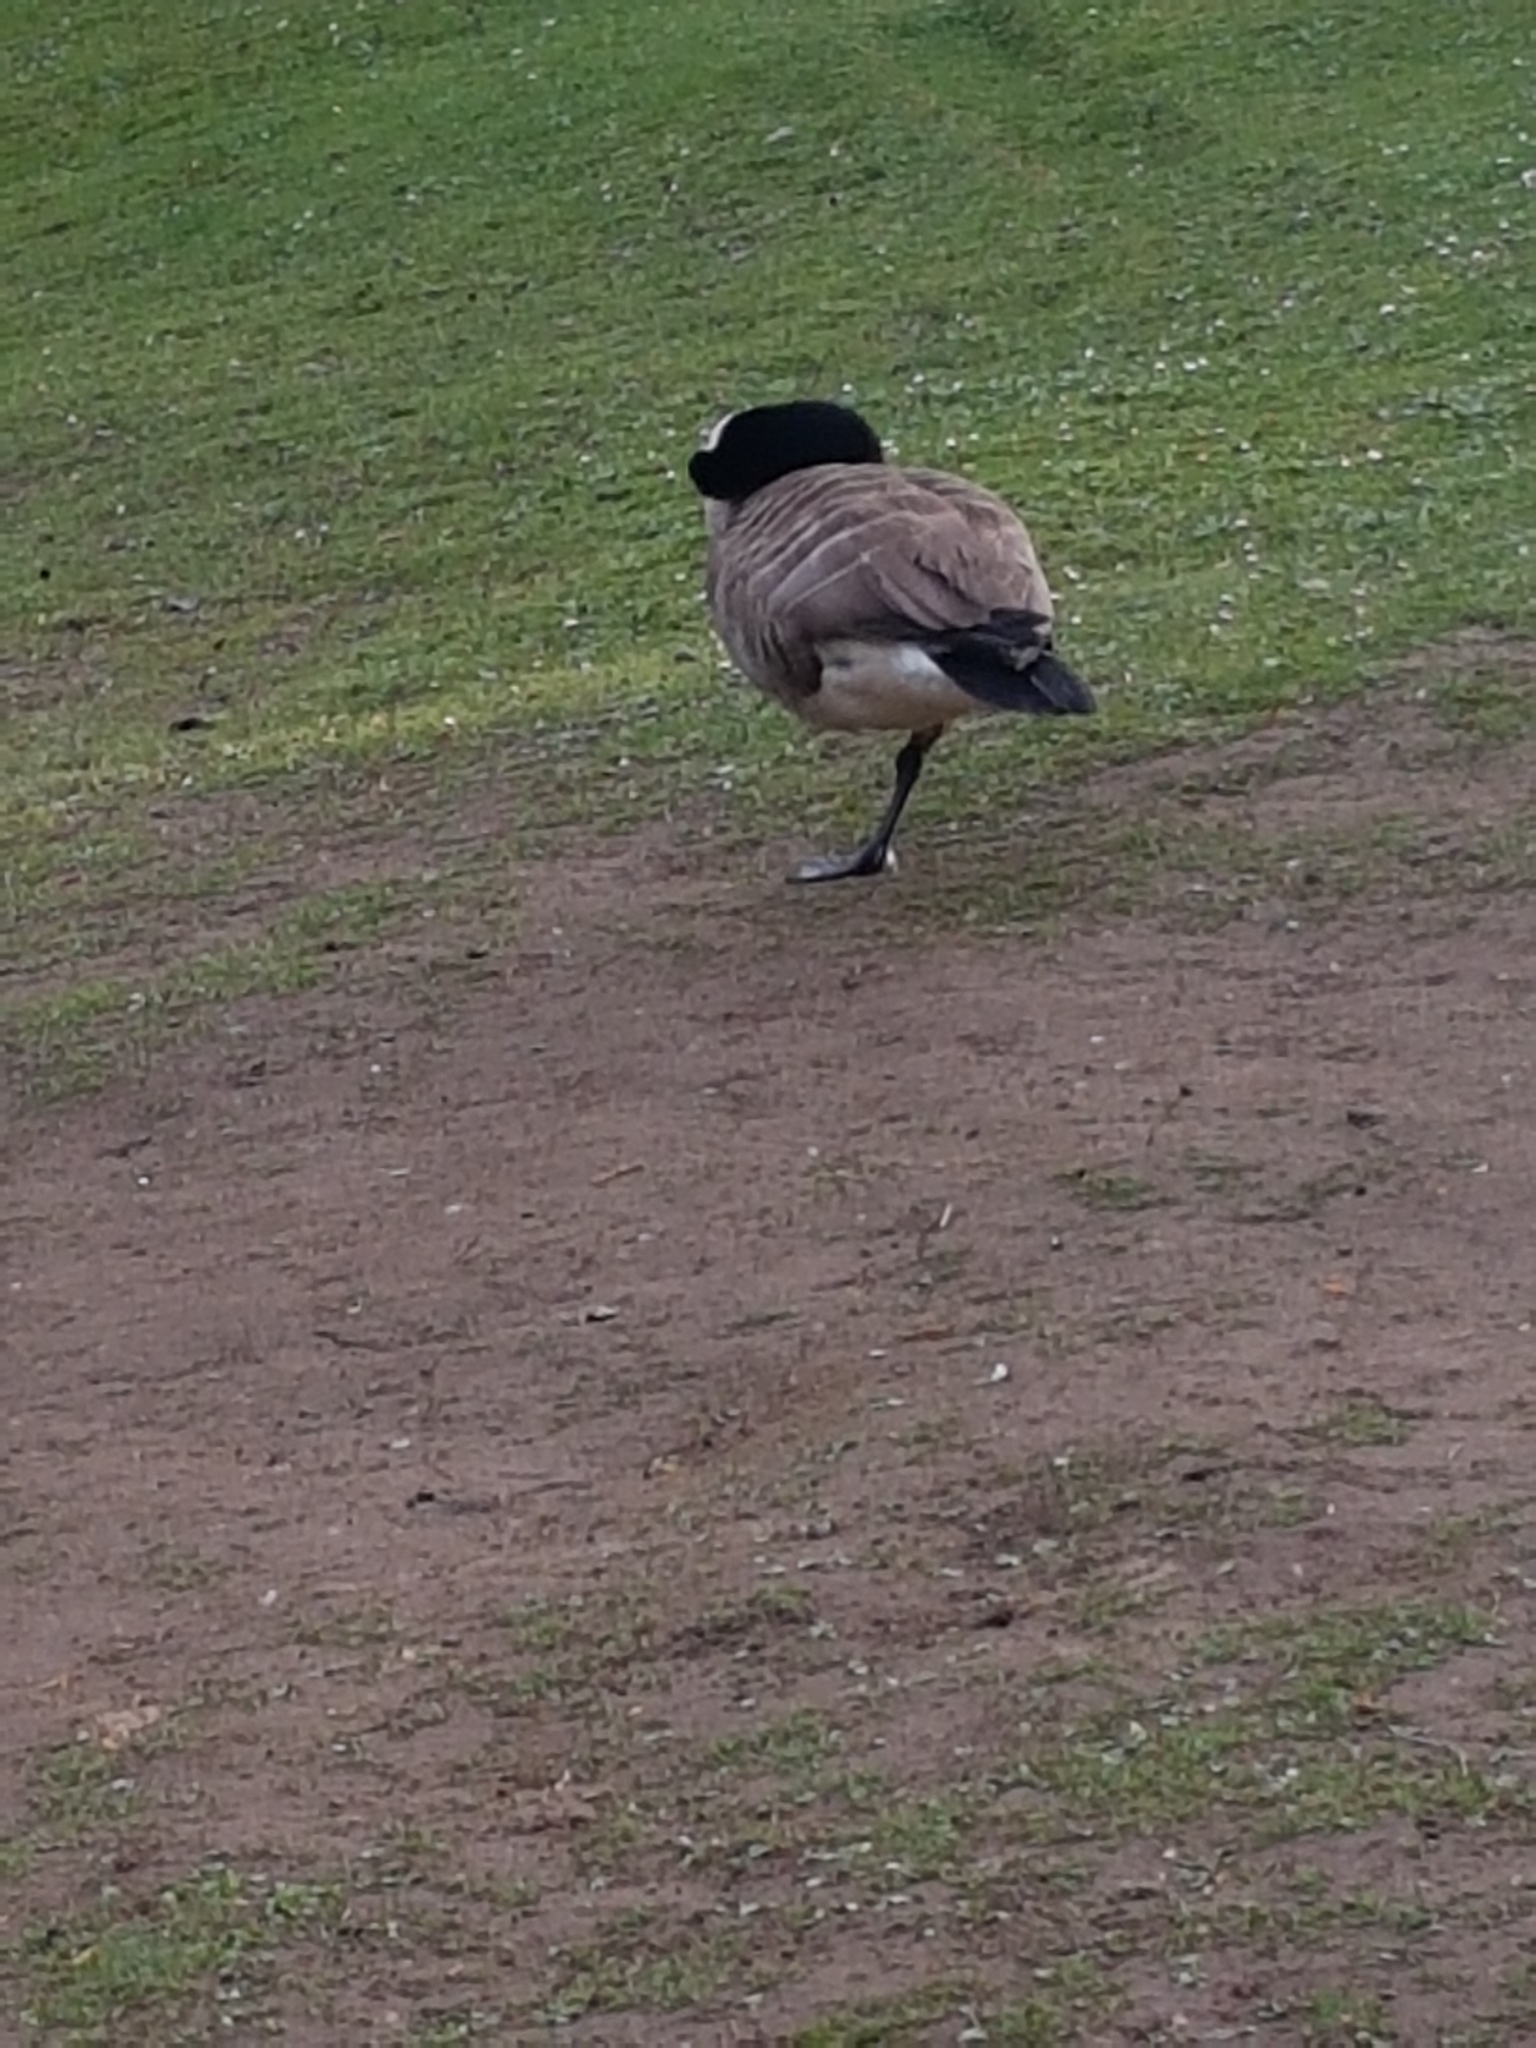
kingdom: Animalia
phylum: Chordata
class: Aves
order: Anseriformes
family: Anatidae
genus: Branta
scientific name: Branta canadensis
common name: Canada goose
